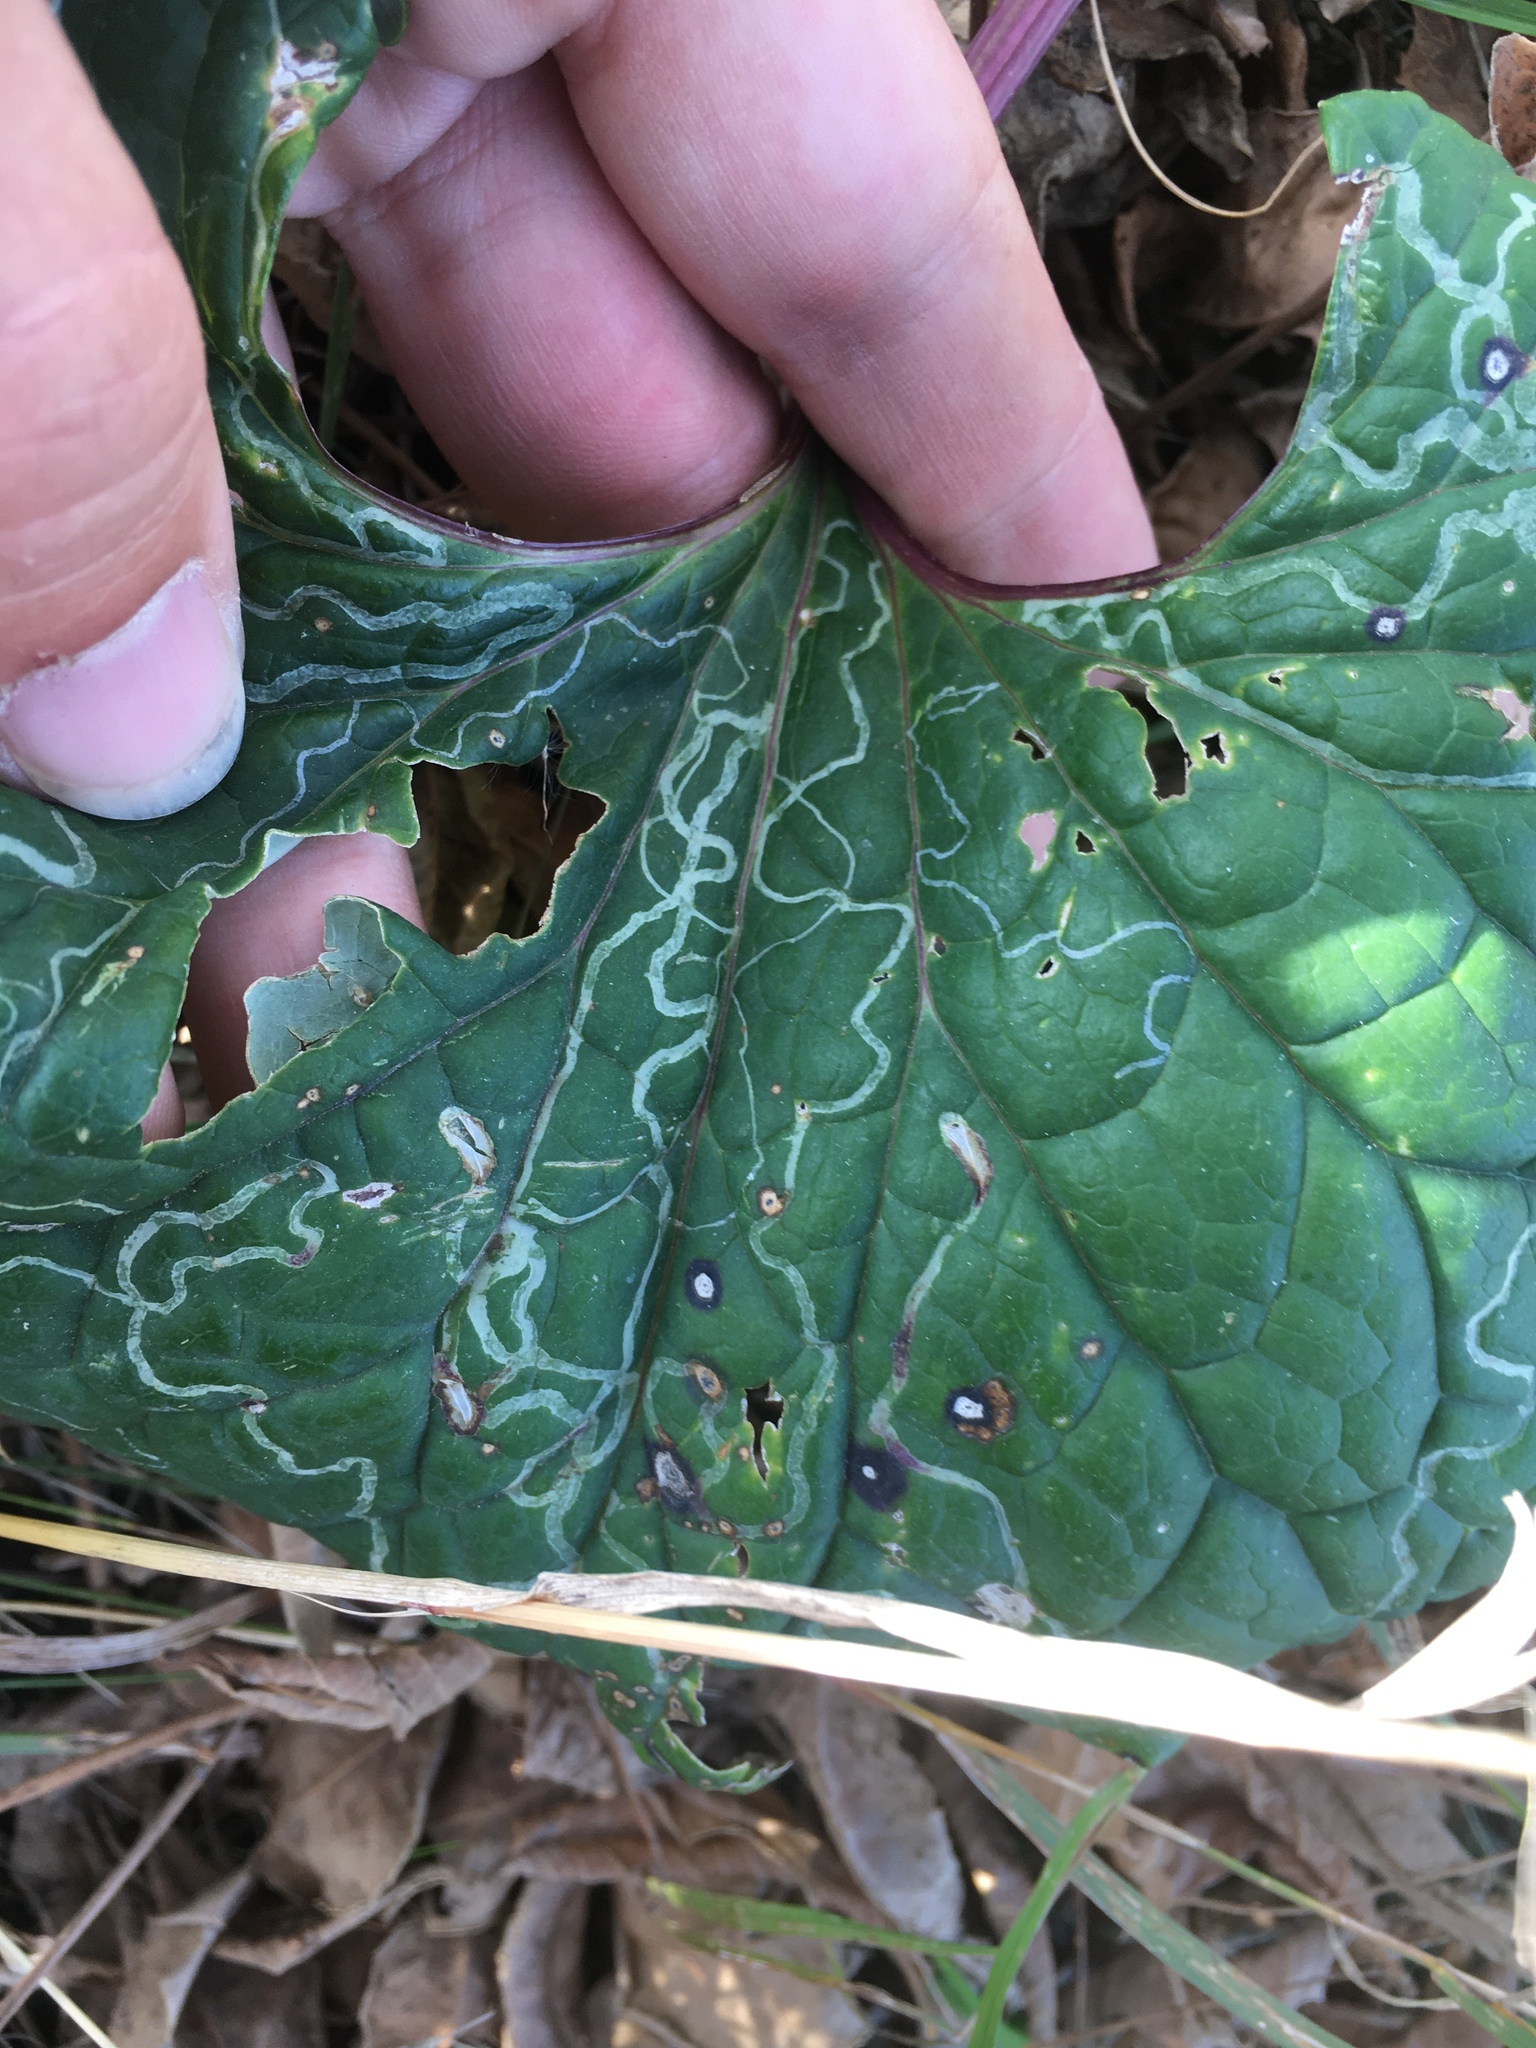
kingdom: Animalia
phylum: Arthropoda
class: Insecta
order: Lepidoptera
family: Gracillariidae
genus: Phyllocnistis
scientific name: Phyllocnistis insignis
